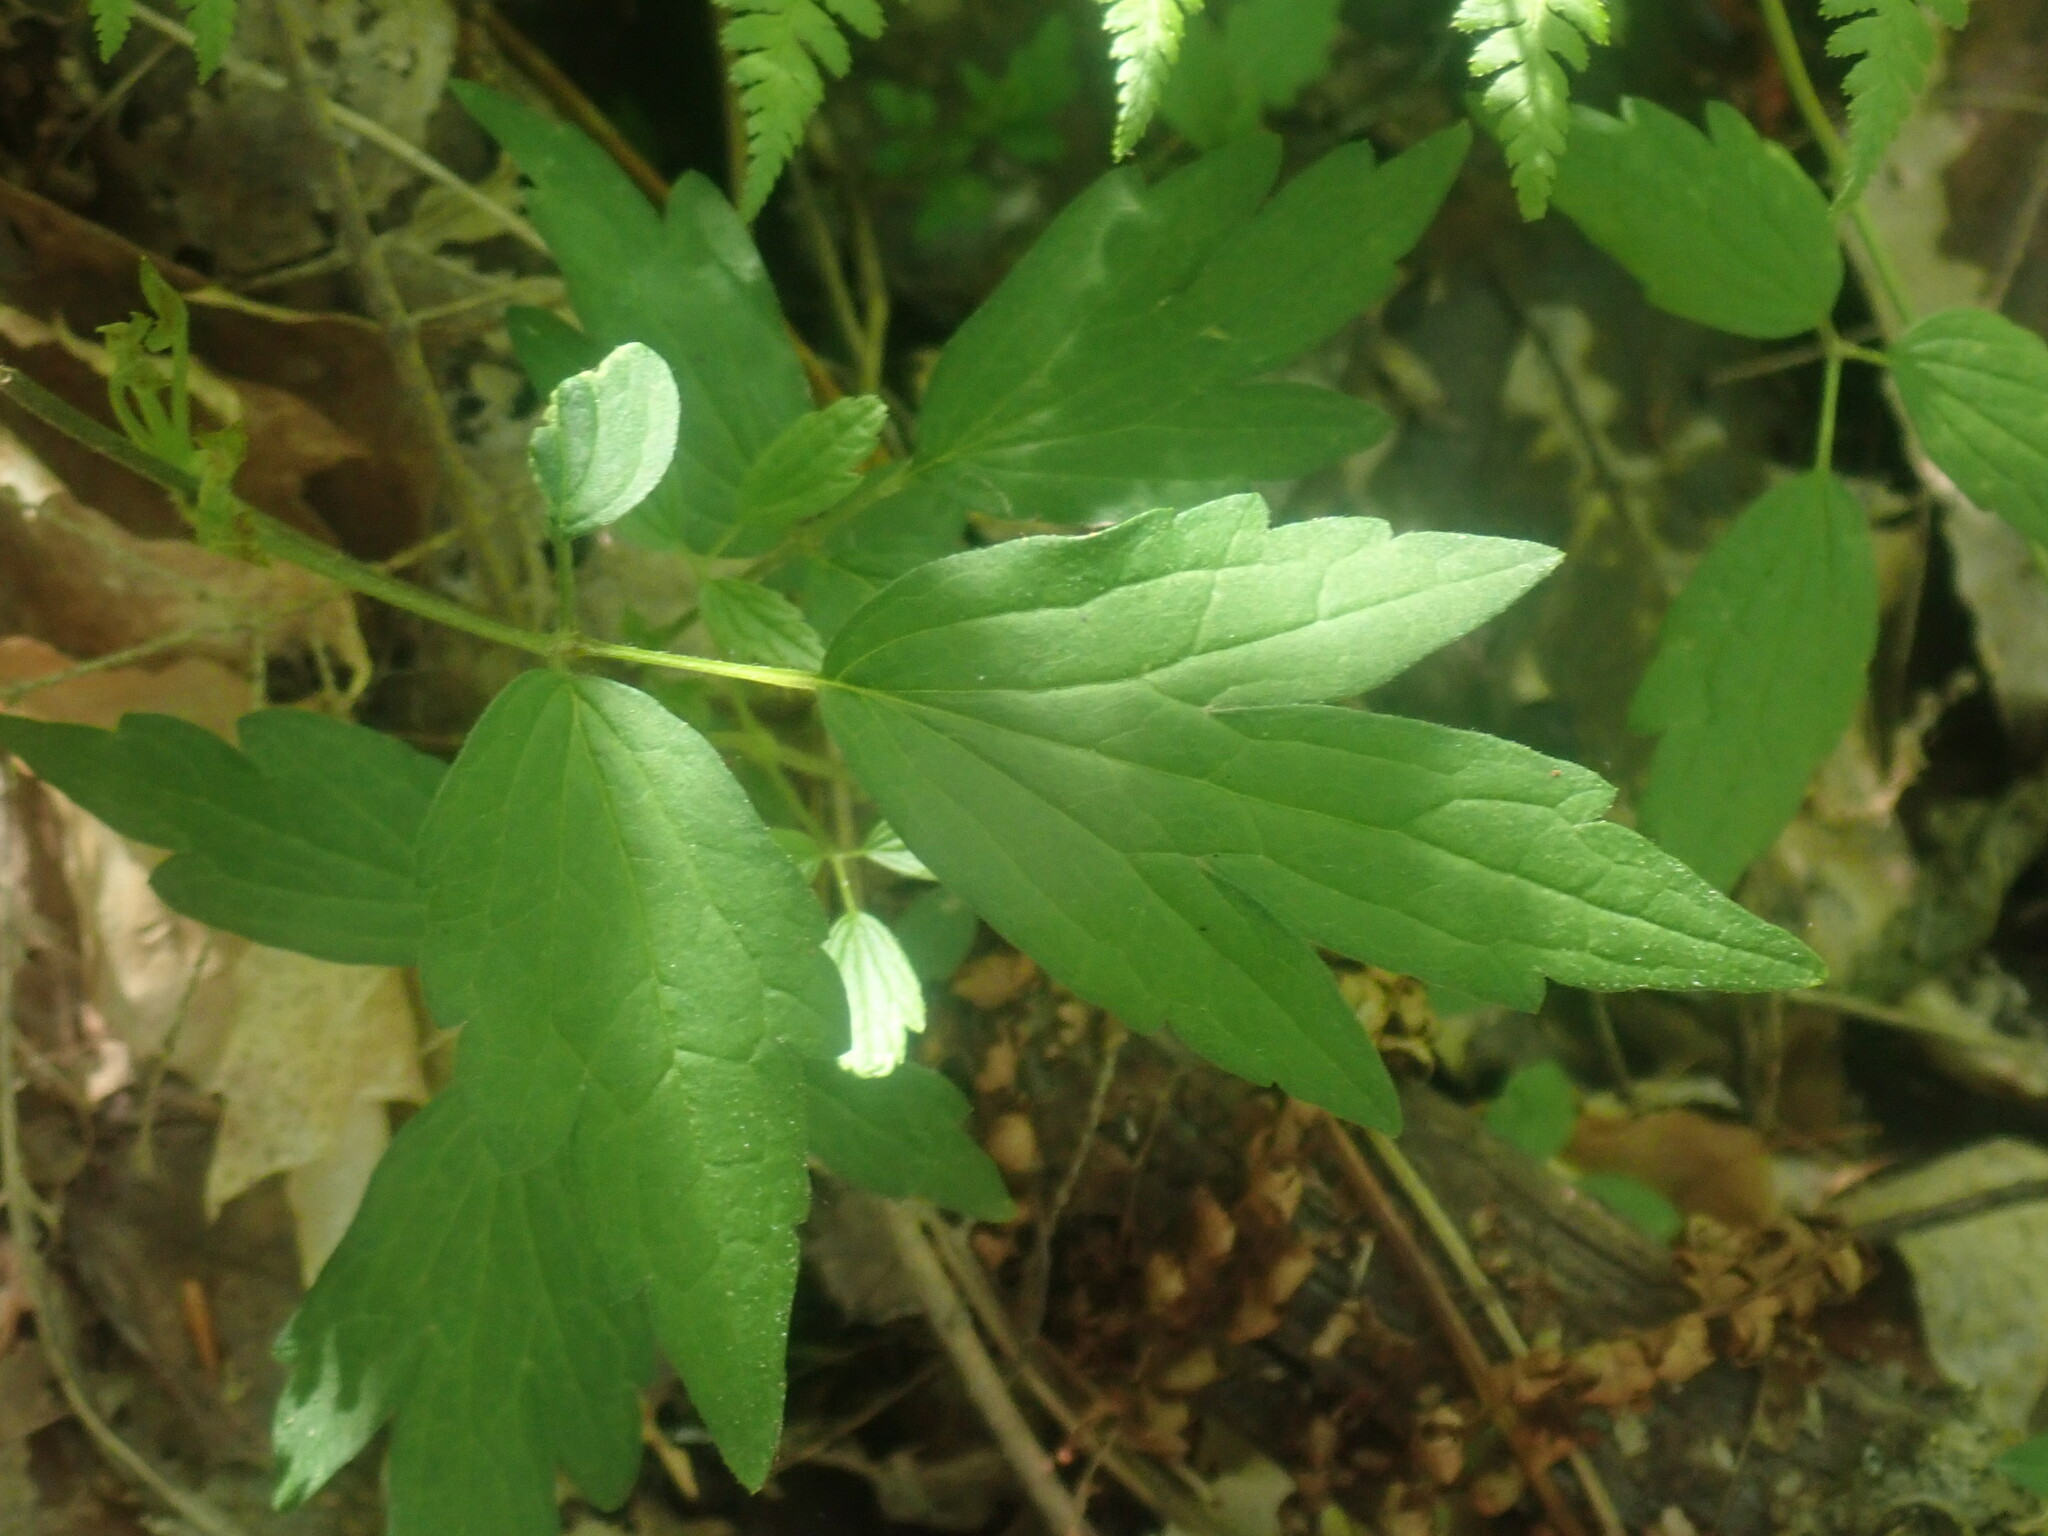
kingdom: Plantae
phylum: Tracheophyta
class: Magnoliopsida
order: Ranunculales
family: Ranunculaceae
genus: Clematis
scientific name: Clematis virginiana
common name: Virgin's-bower
